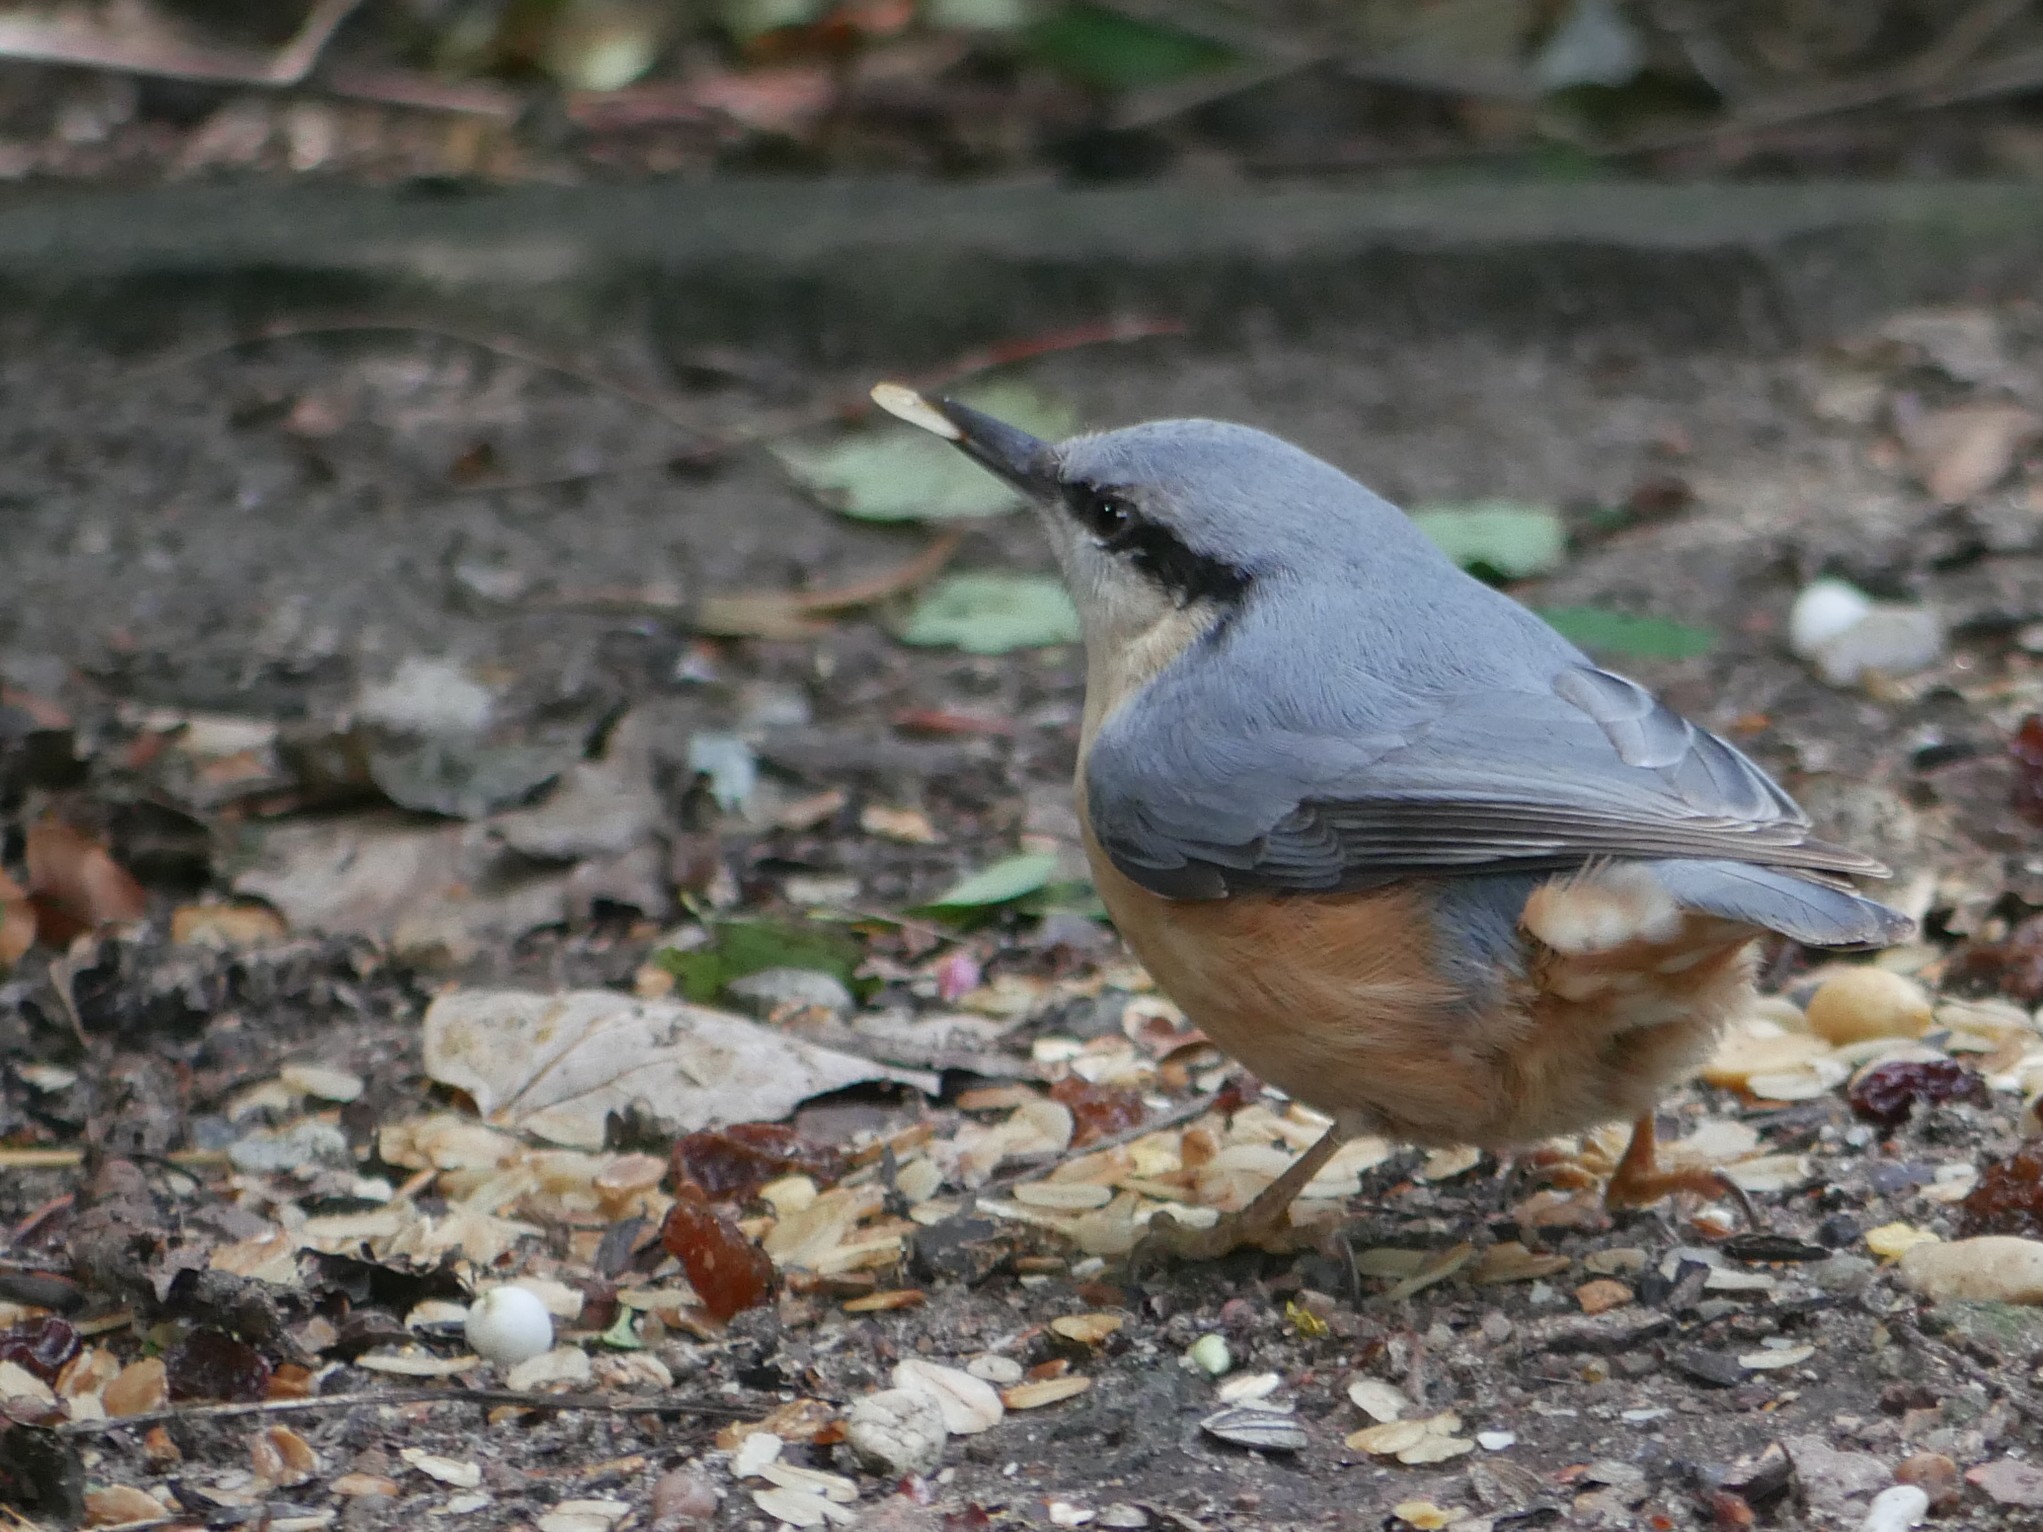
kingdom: Animalia
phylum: Chordata
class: Aves
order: Passeriformes
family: Sittidae
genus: Sitta
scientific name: Sitta europaea
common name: Eurasian nuthatch
